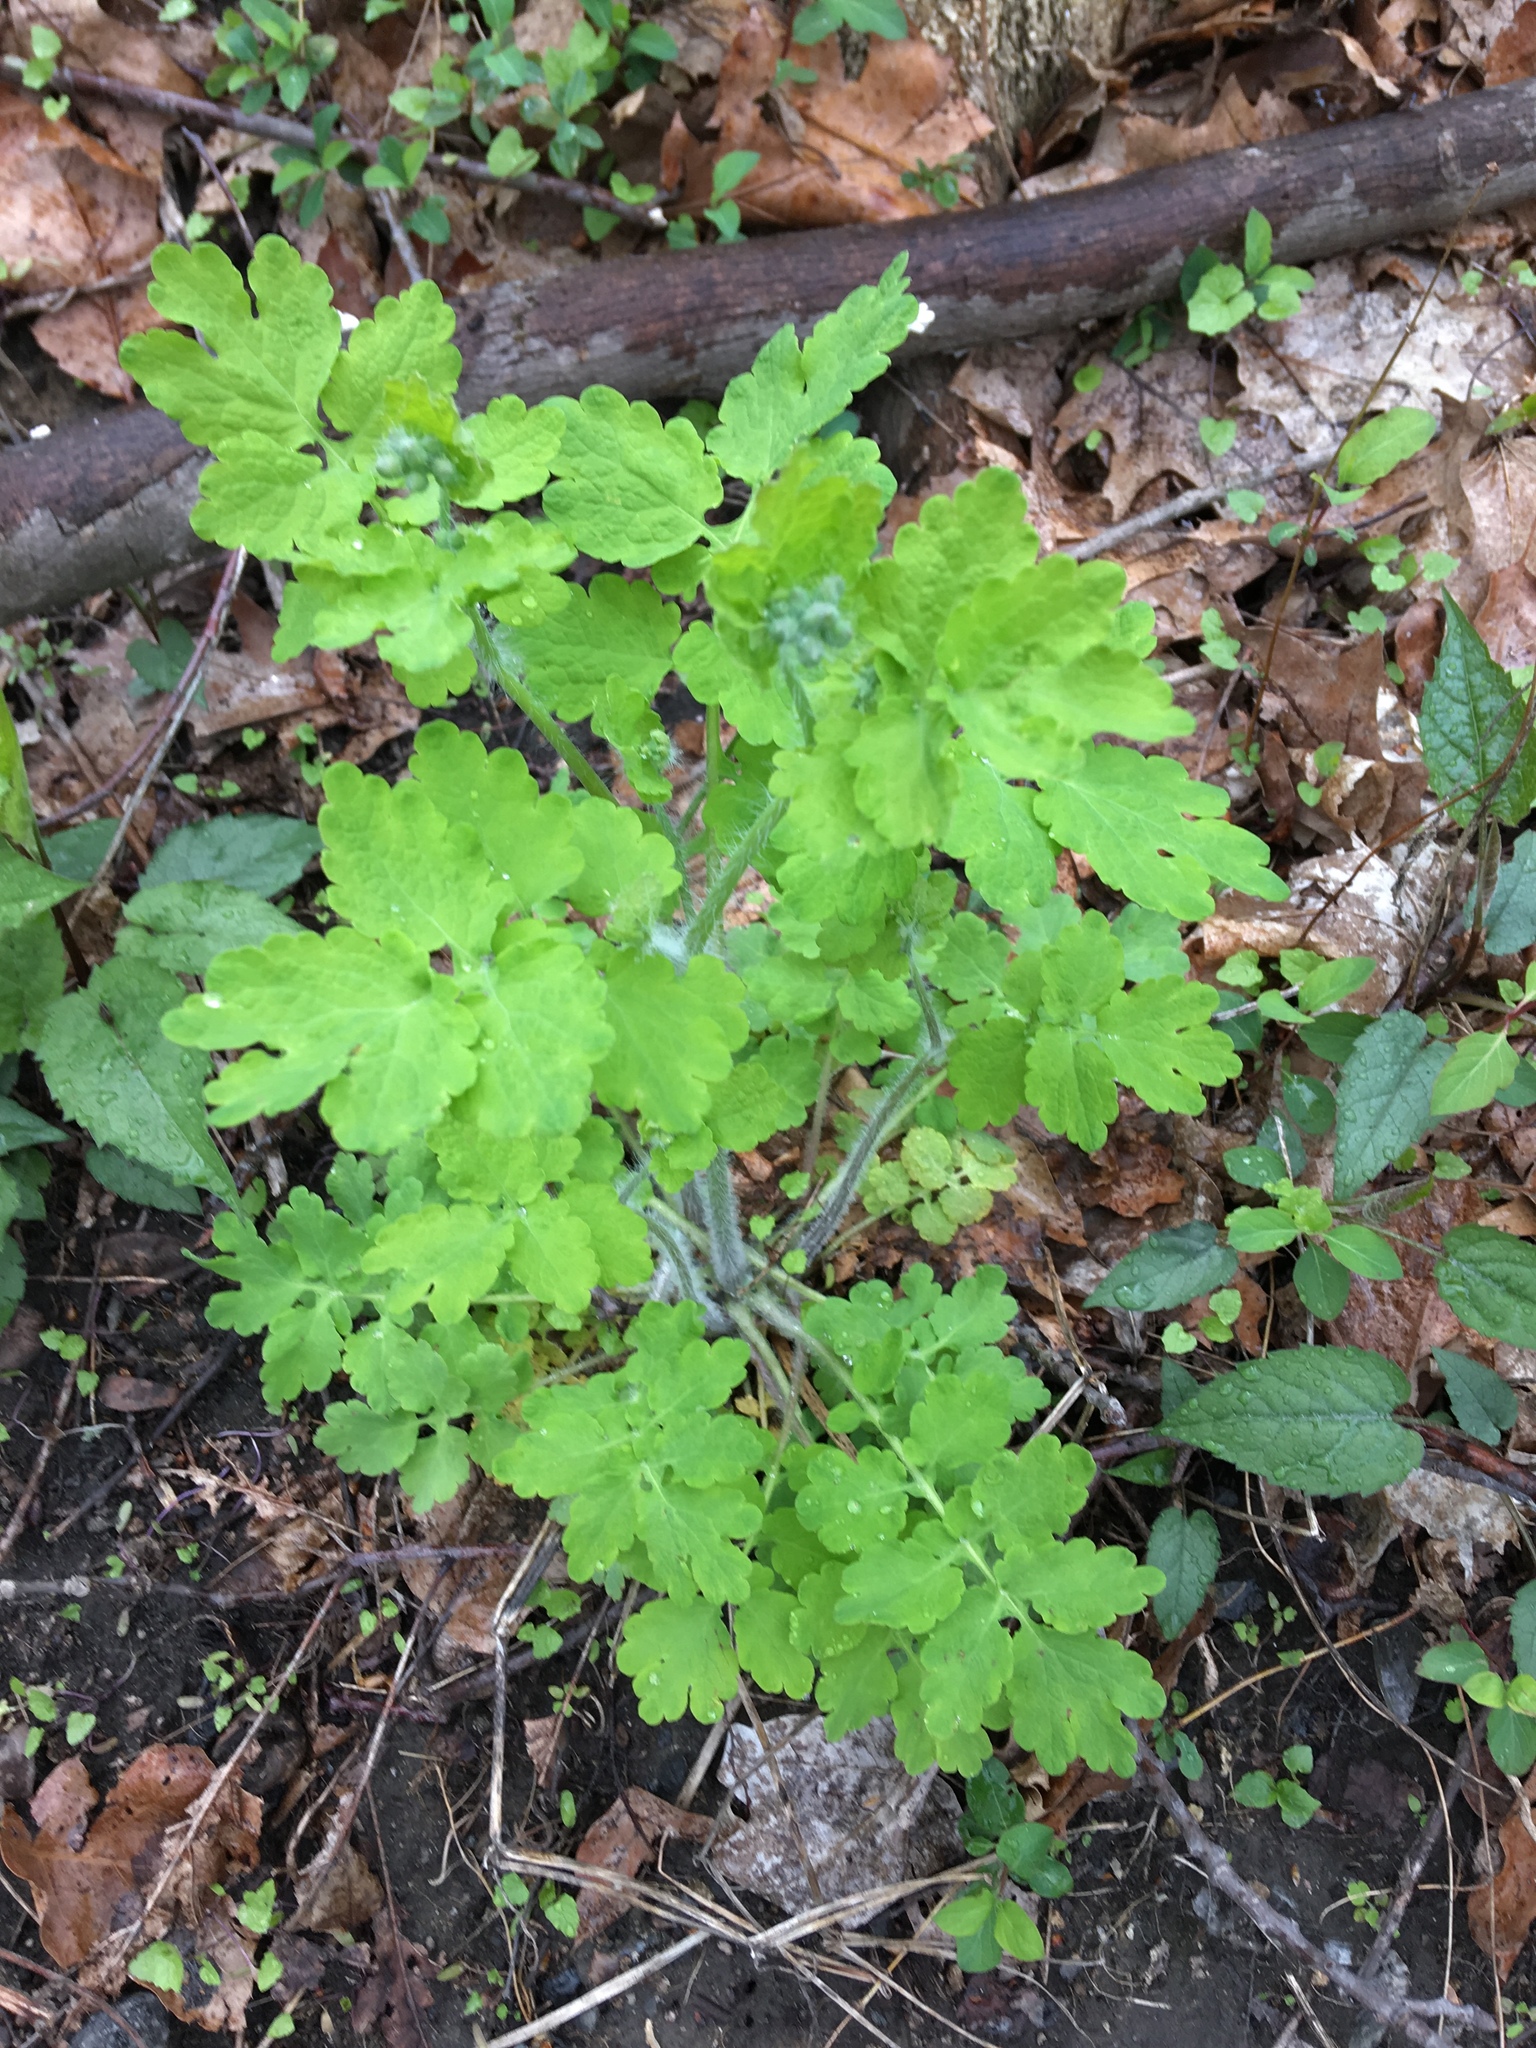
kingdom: Plantae
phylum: Tracheophyta
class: Magnoliopsida
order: Ranunculales
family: Papaveraceae
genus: Chelidonium
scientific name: Chelidonium majus
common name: Greater celandine
